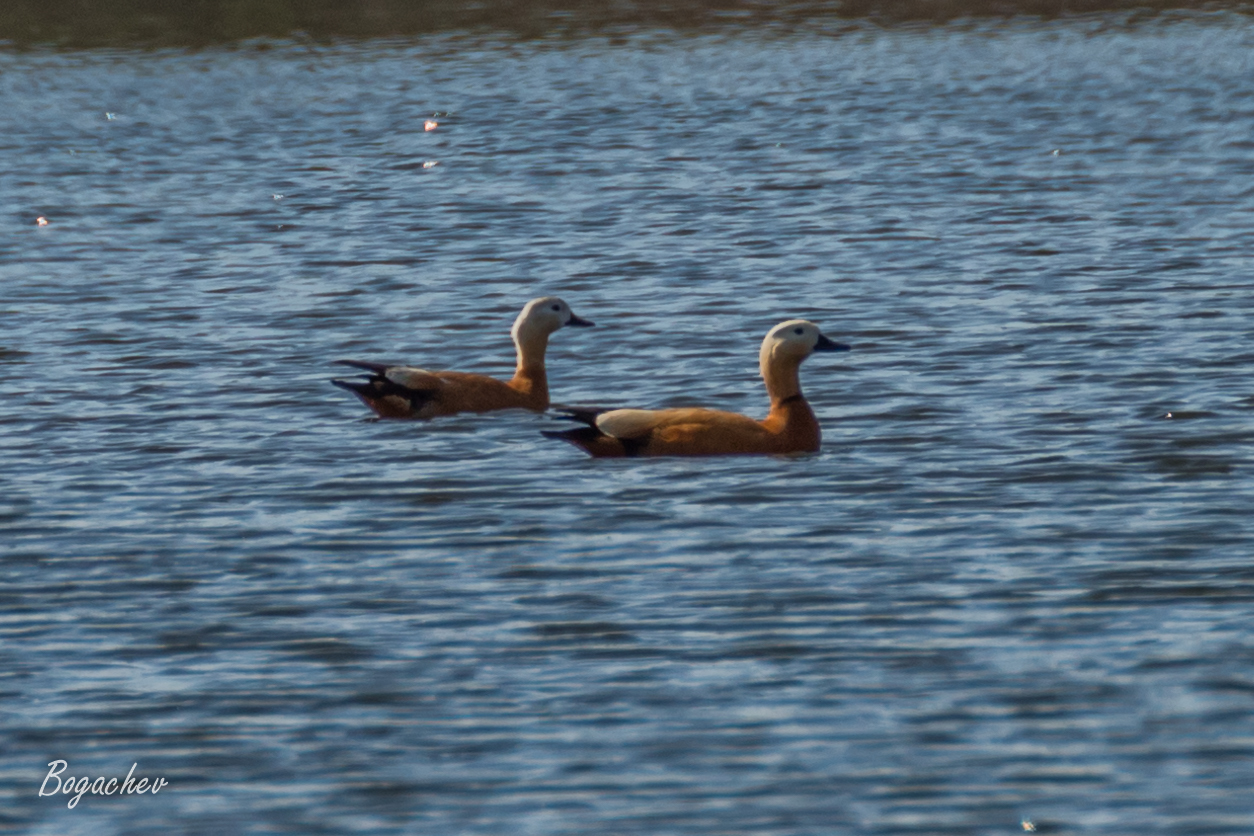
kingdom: Animalia
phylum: Chordata
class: Aves
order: Anseriformes
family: Anatidae
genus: Tadorna
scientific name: Tadorna ferruginea
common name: Ruddy shelduck
